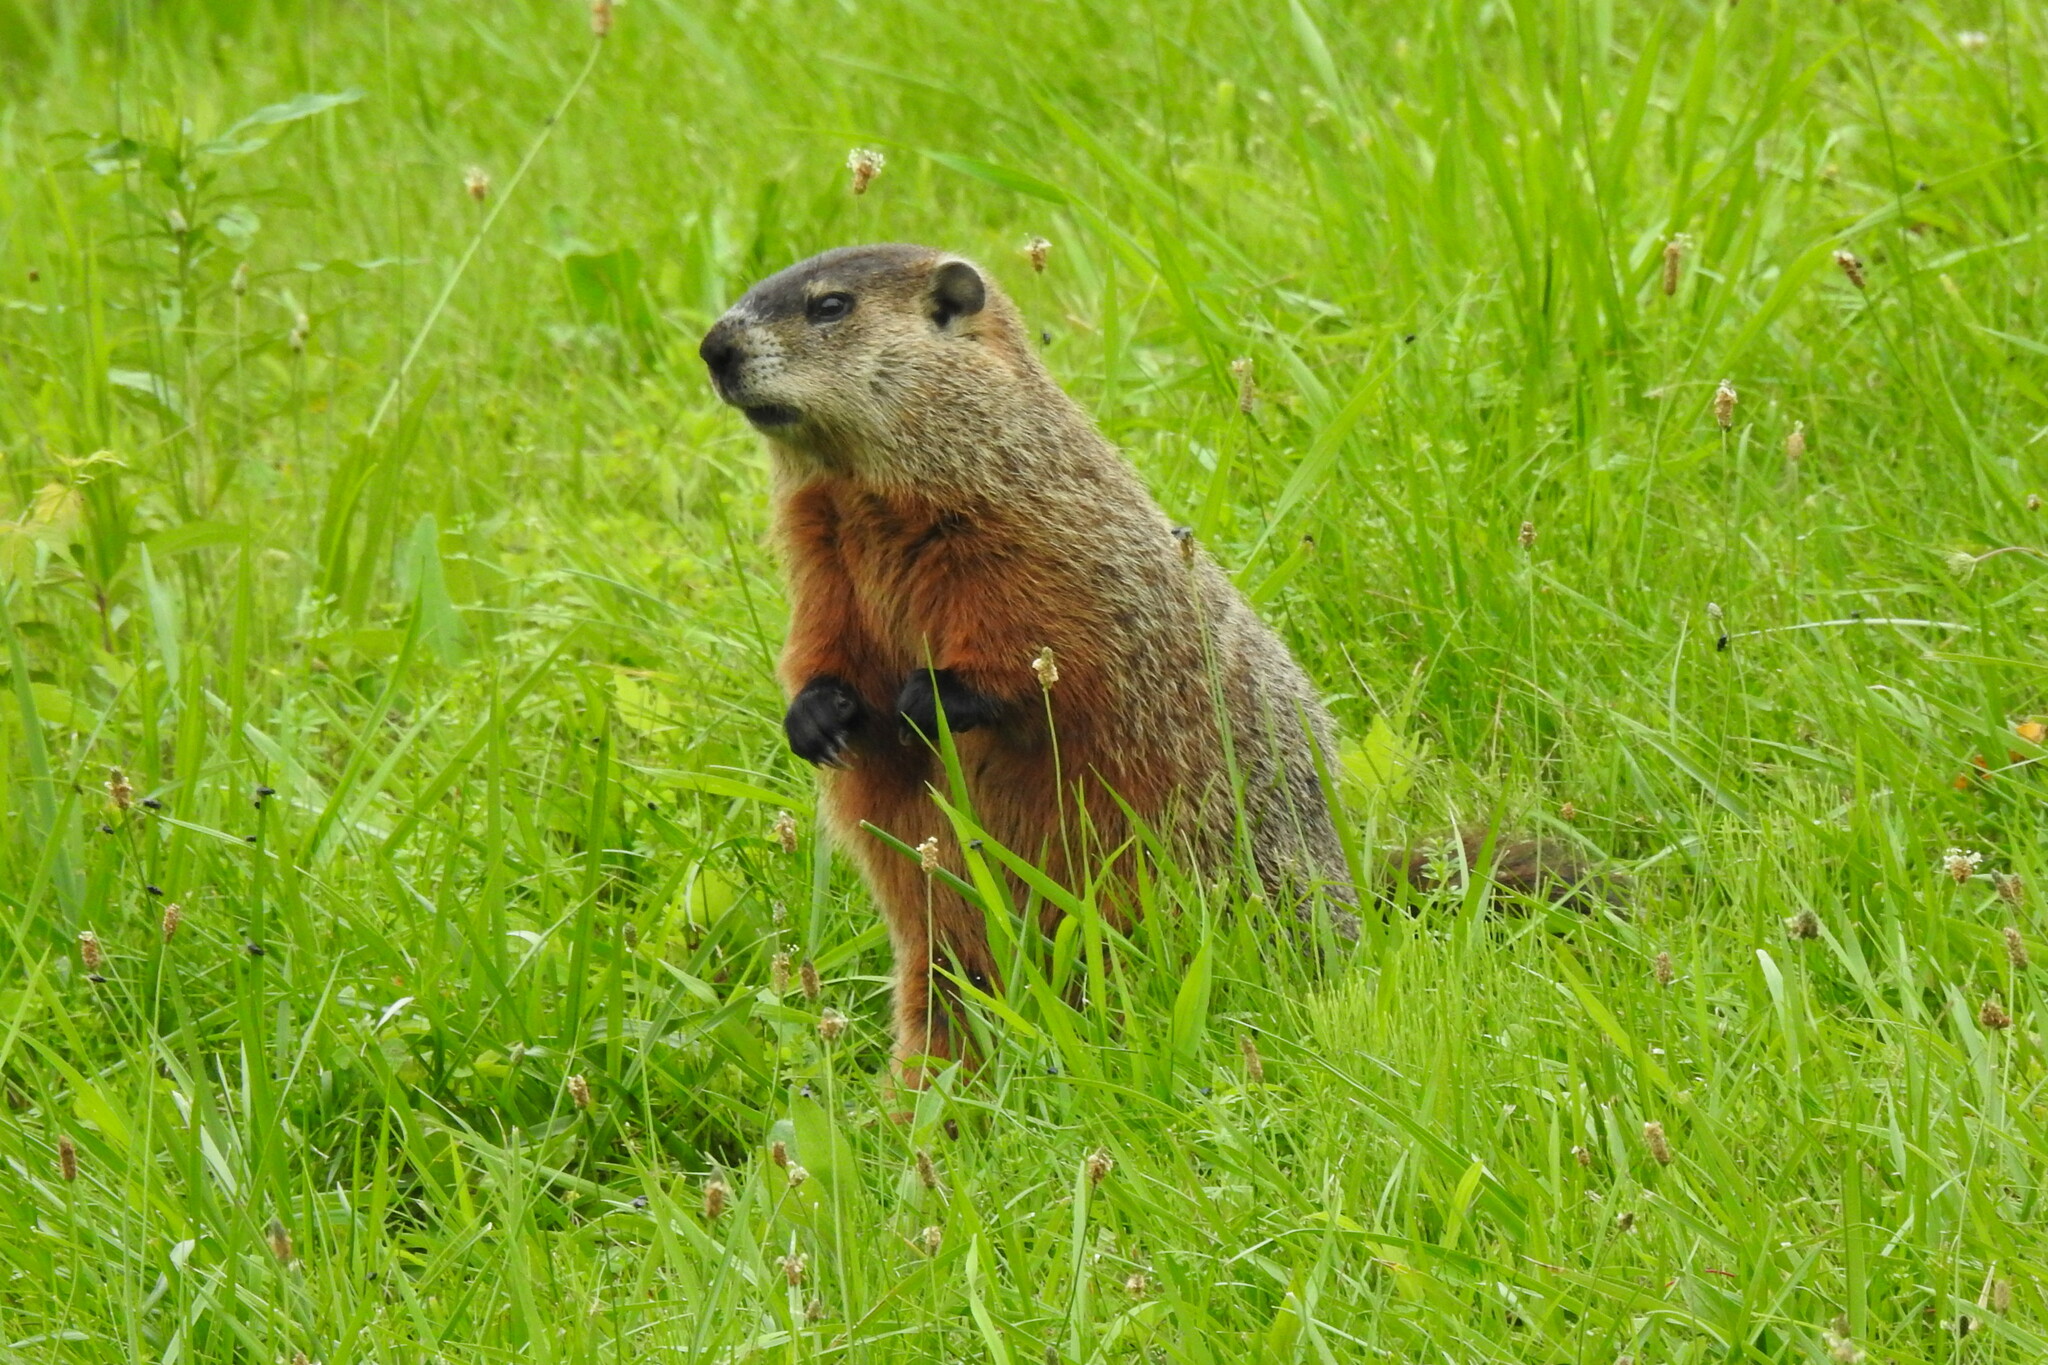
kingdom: Animalia
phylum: Chordata
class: Mammalia
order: Rodentia
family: Sciuridae
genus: Marmota
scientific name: Marmota monax
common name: Groundhog
